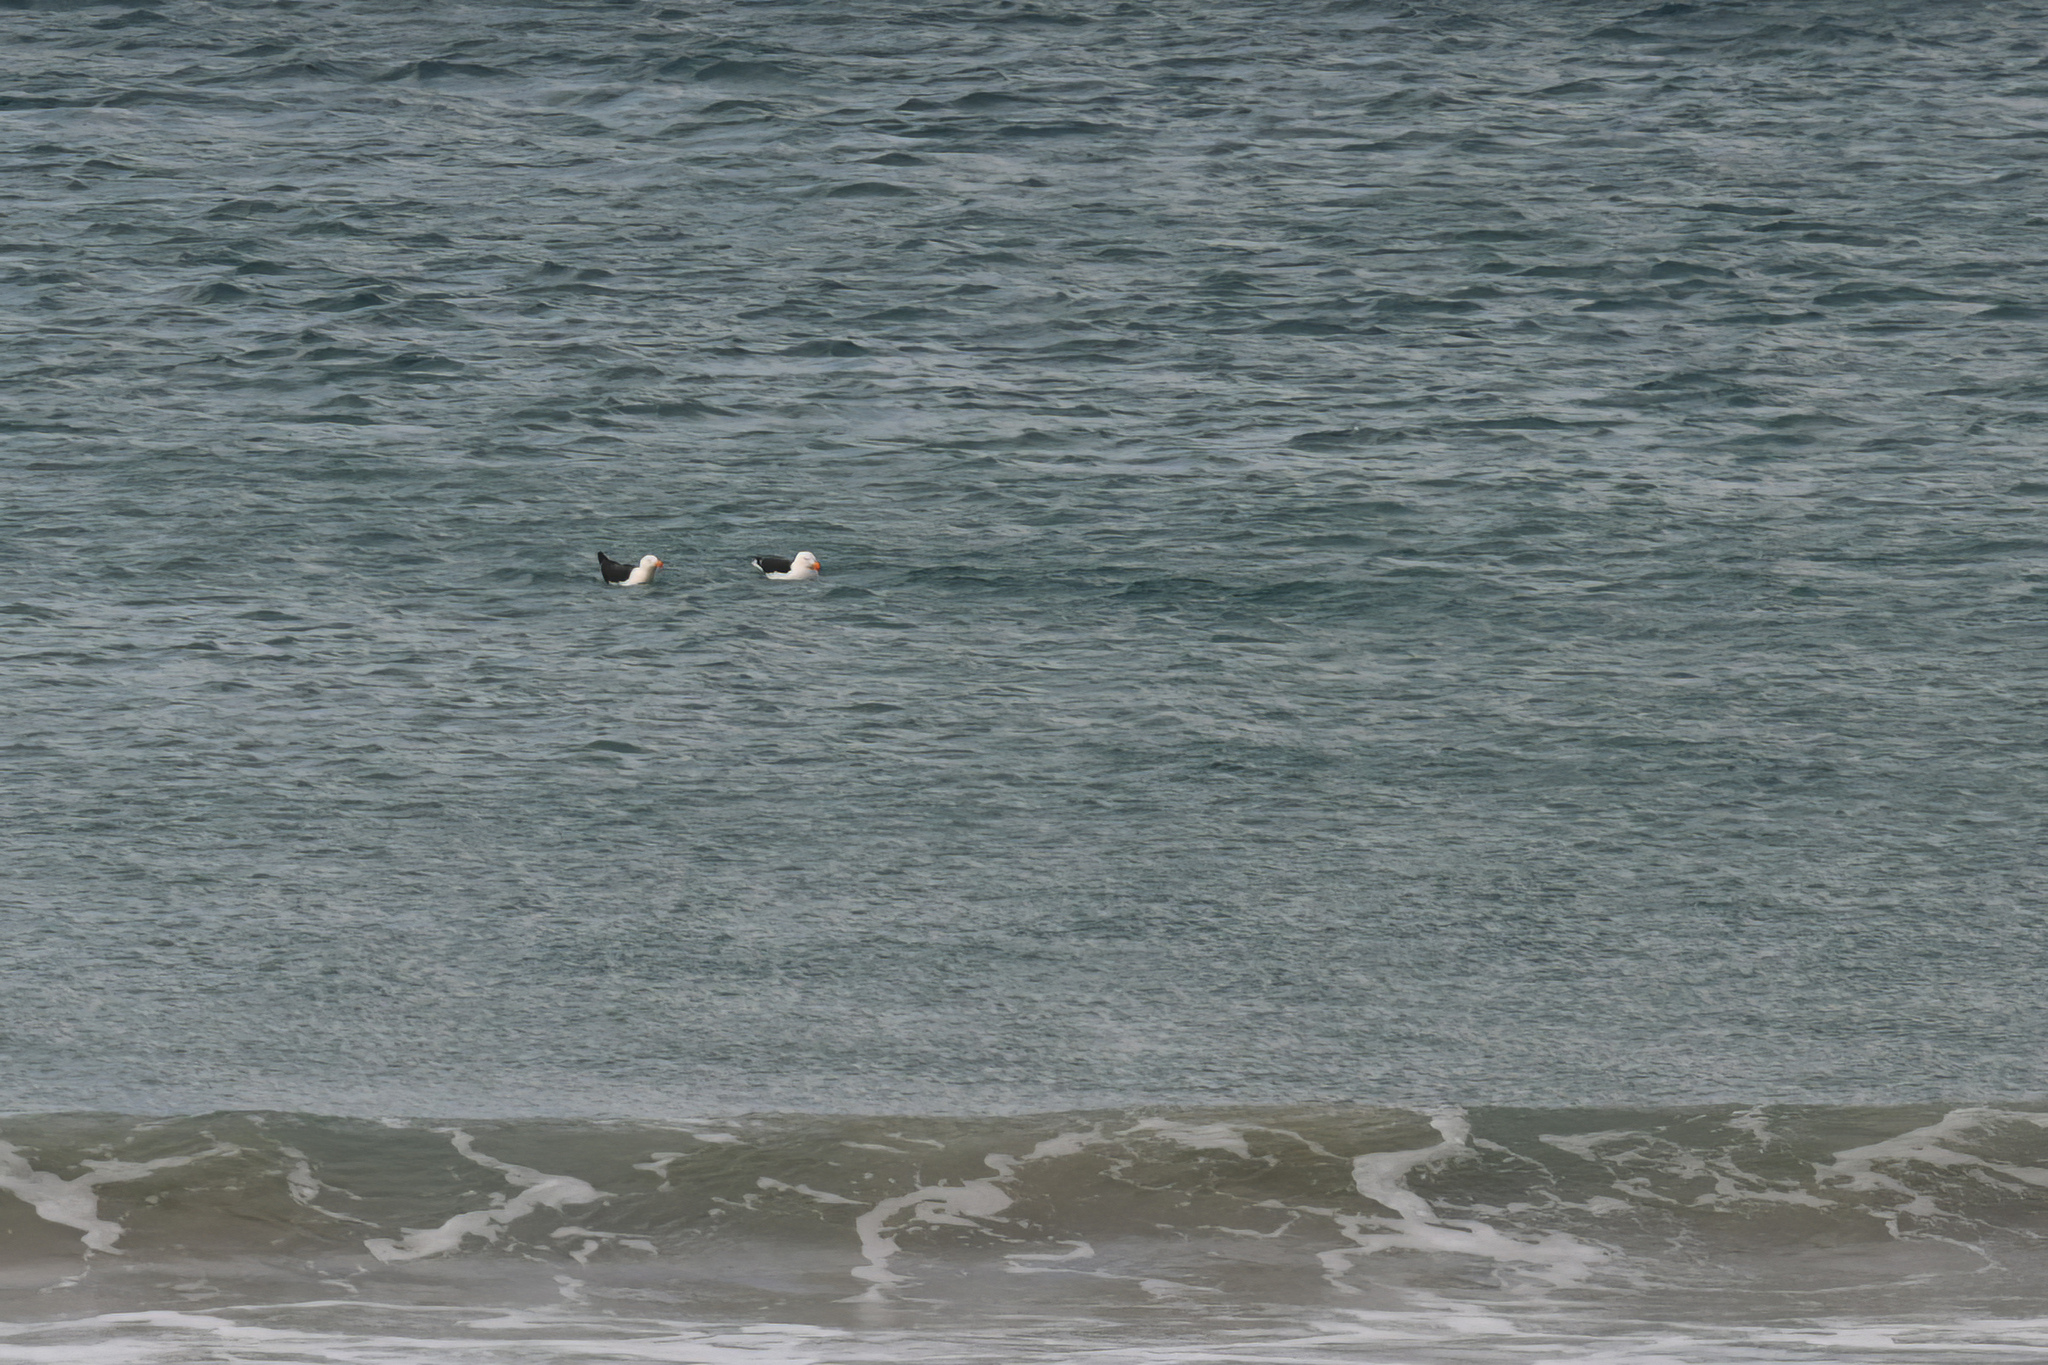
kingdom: Animalia
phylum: Chordata
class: Aves
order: Charadriiformes
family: Laridae
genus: Larus
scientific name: Larus pacificus
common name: Pacific gull
